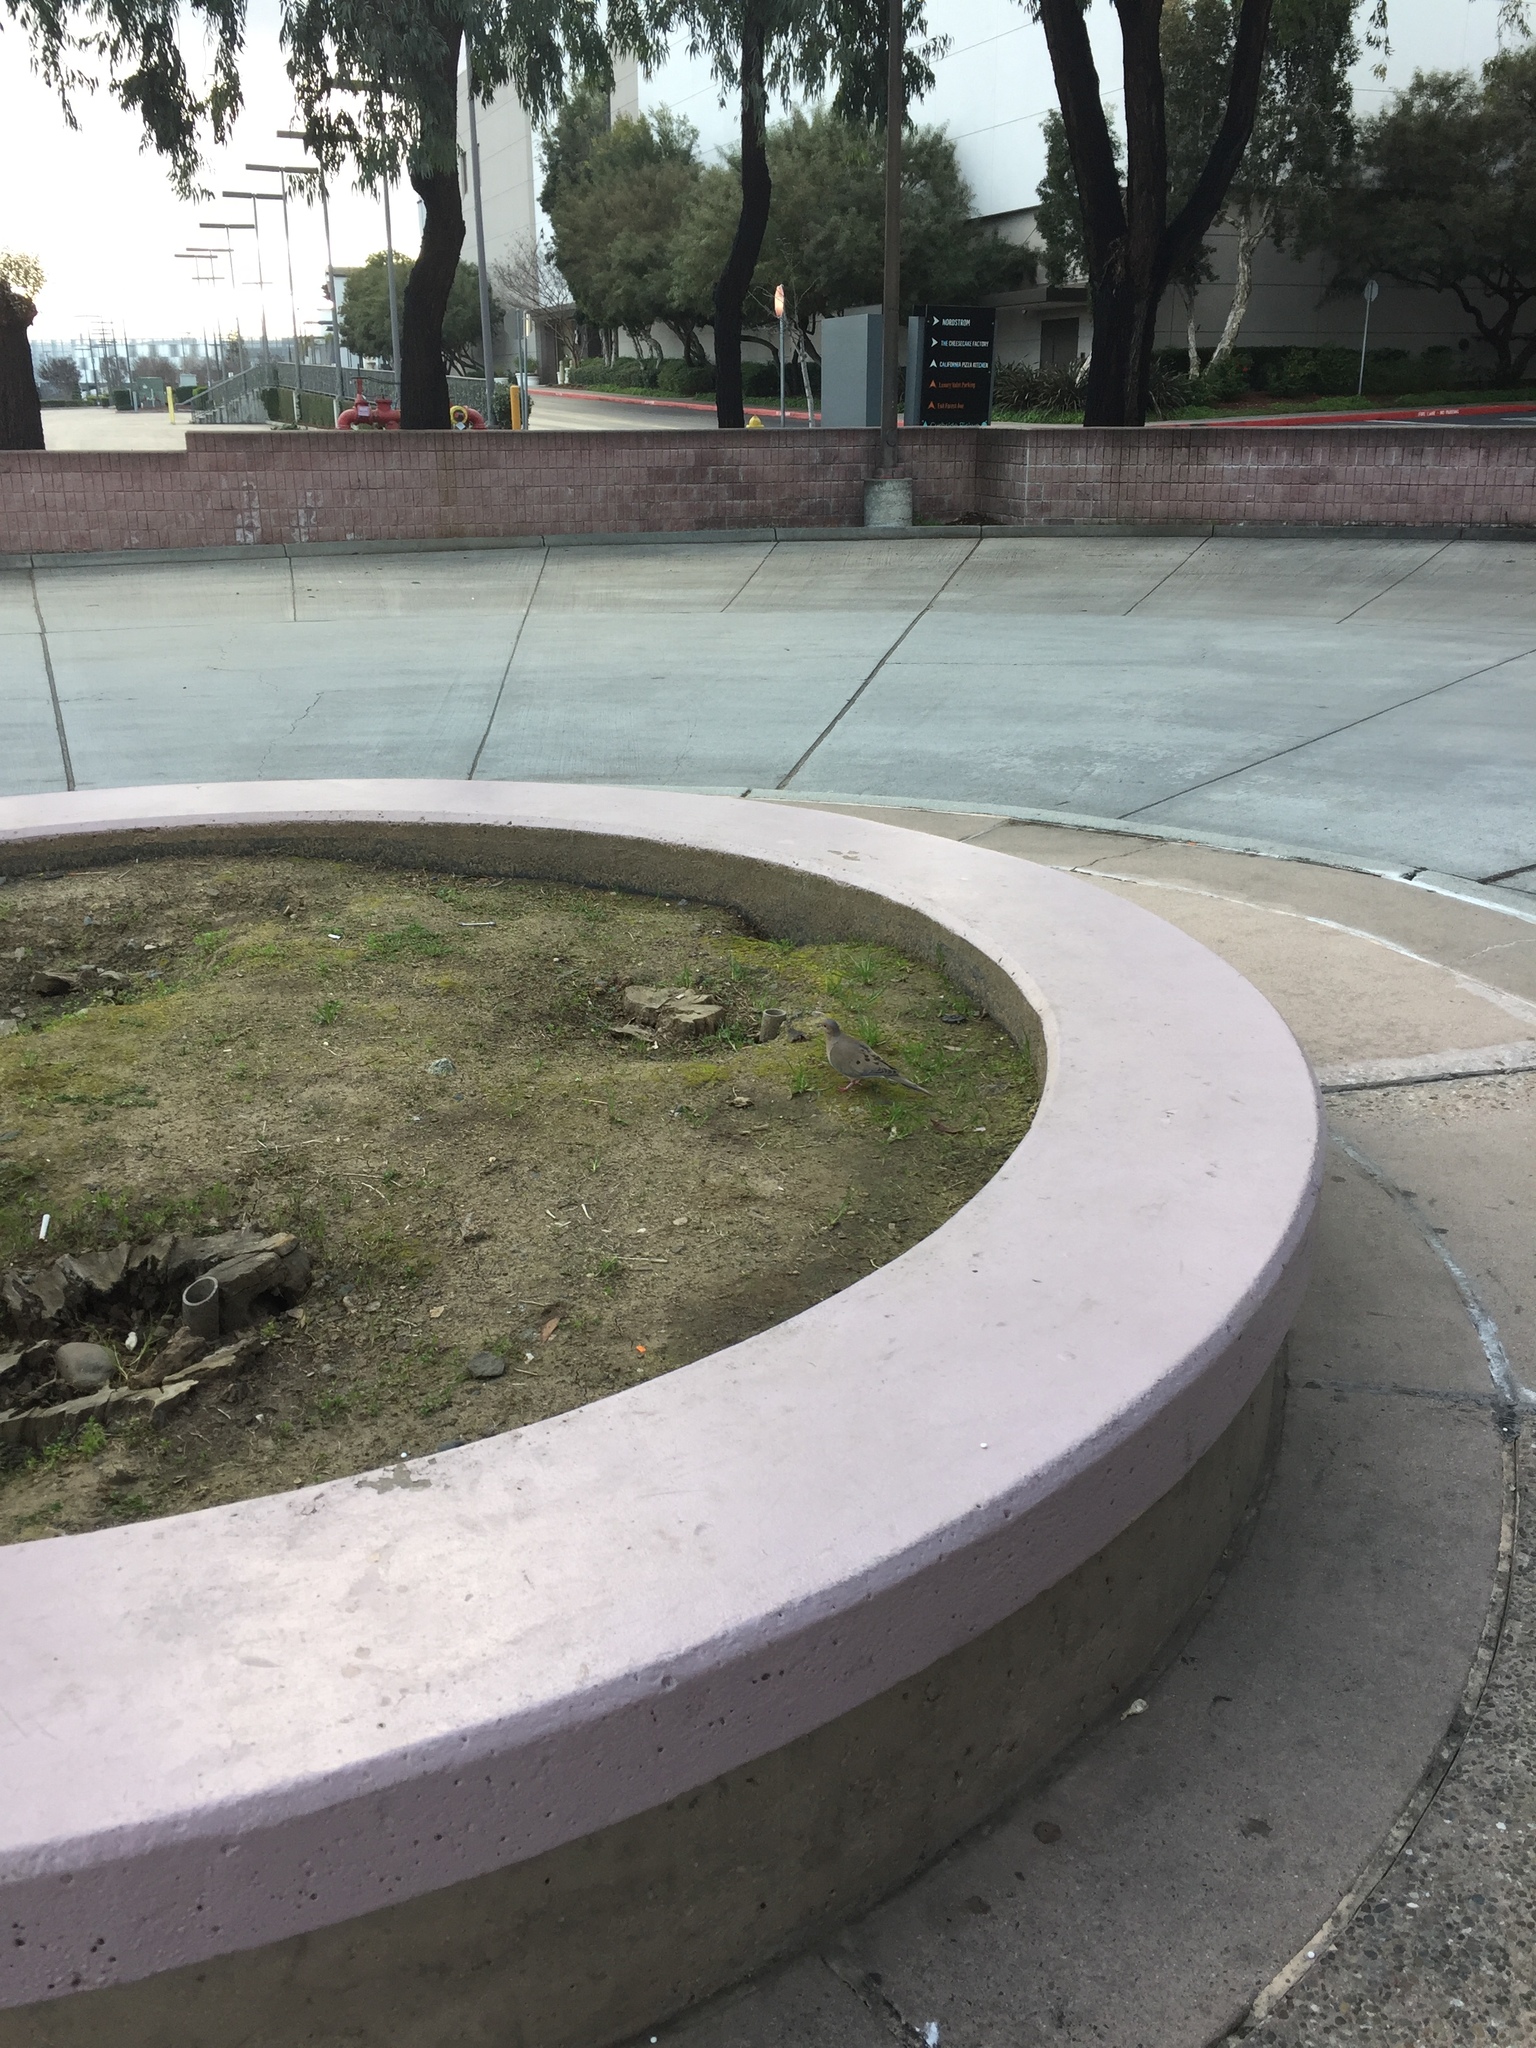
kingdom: Animalia
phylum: Chordata
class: Aves
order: Columbiformes
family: Columbidae
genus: Zenaida
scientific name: Zenaida macroura
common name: Mourning dove
